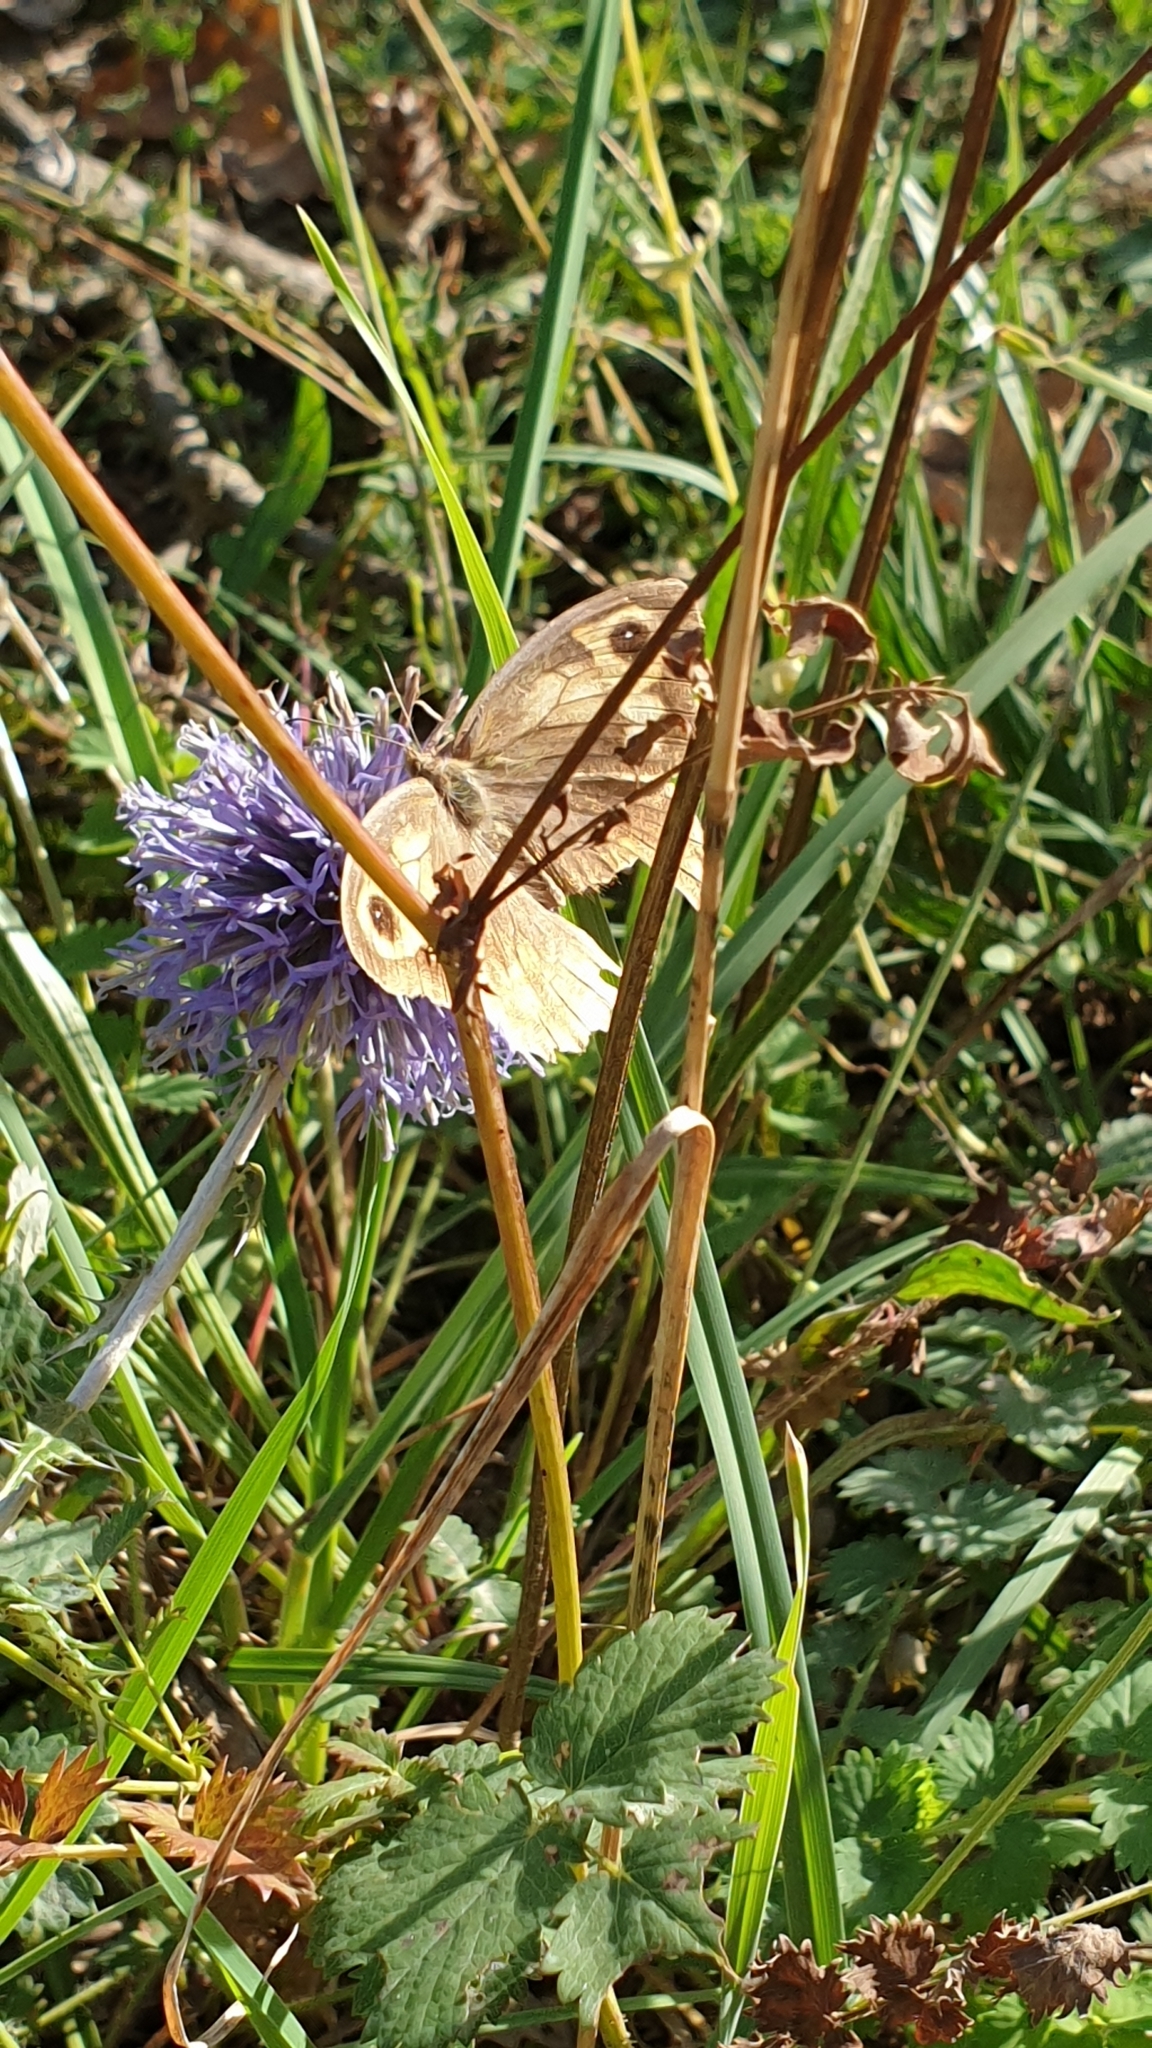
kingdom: Animalia
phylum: Arthropoda
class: Insecta
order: Lepidoptera
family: Nymphalidae
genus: Maniola
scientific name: Maniola jurtina
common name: Meadow brown
